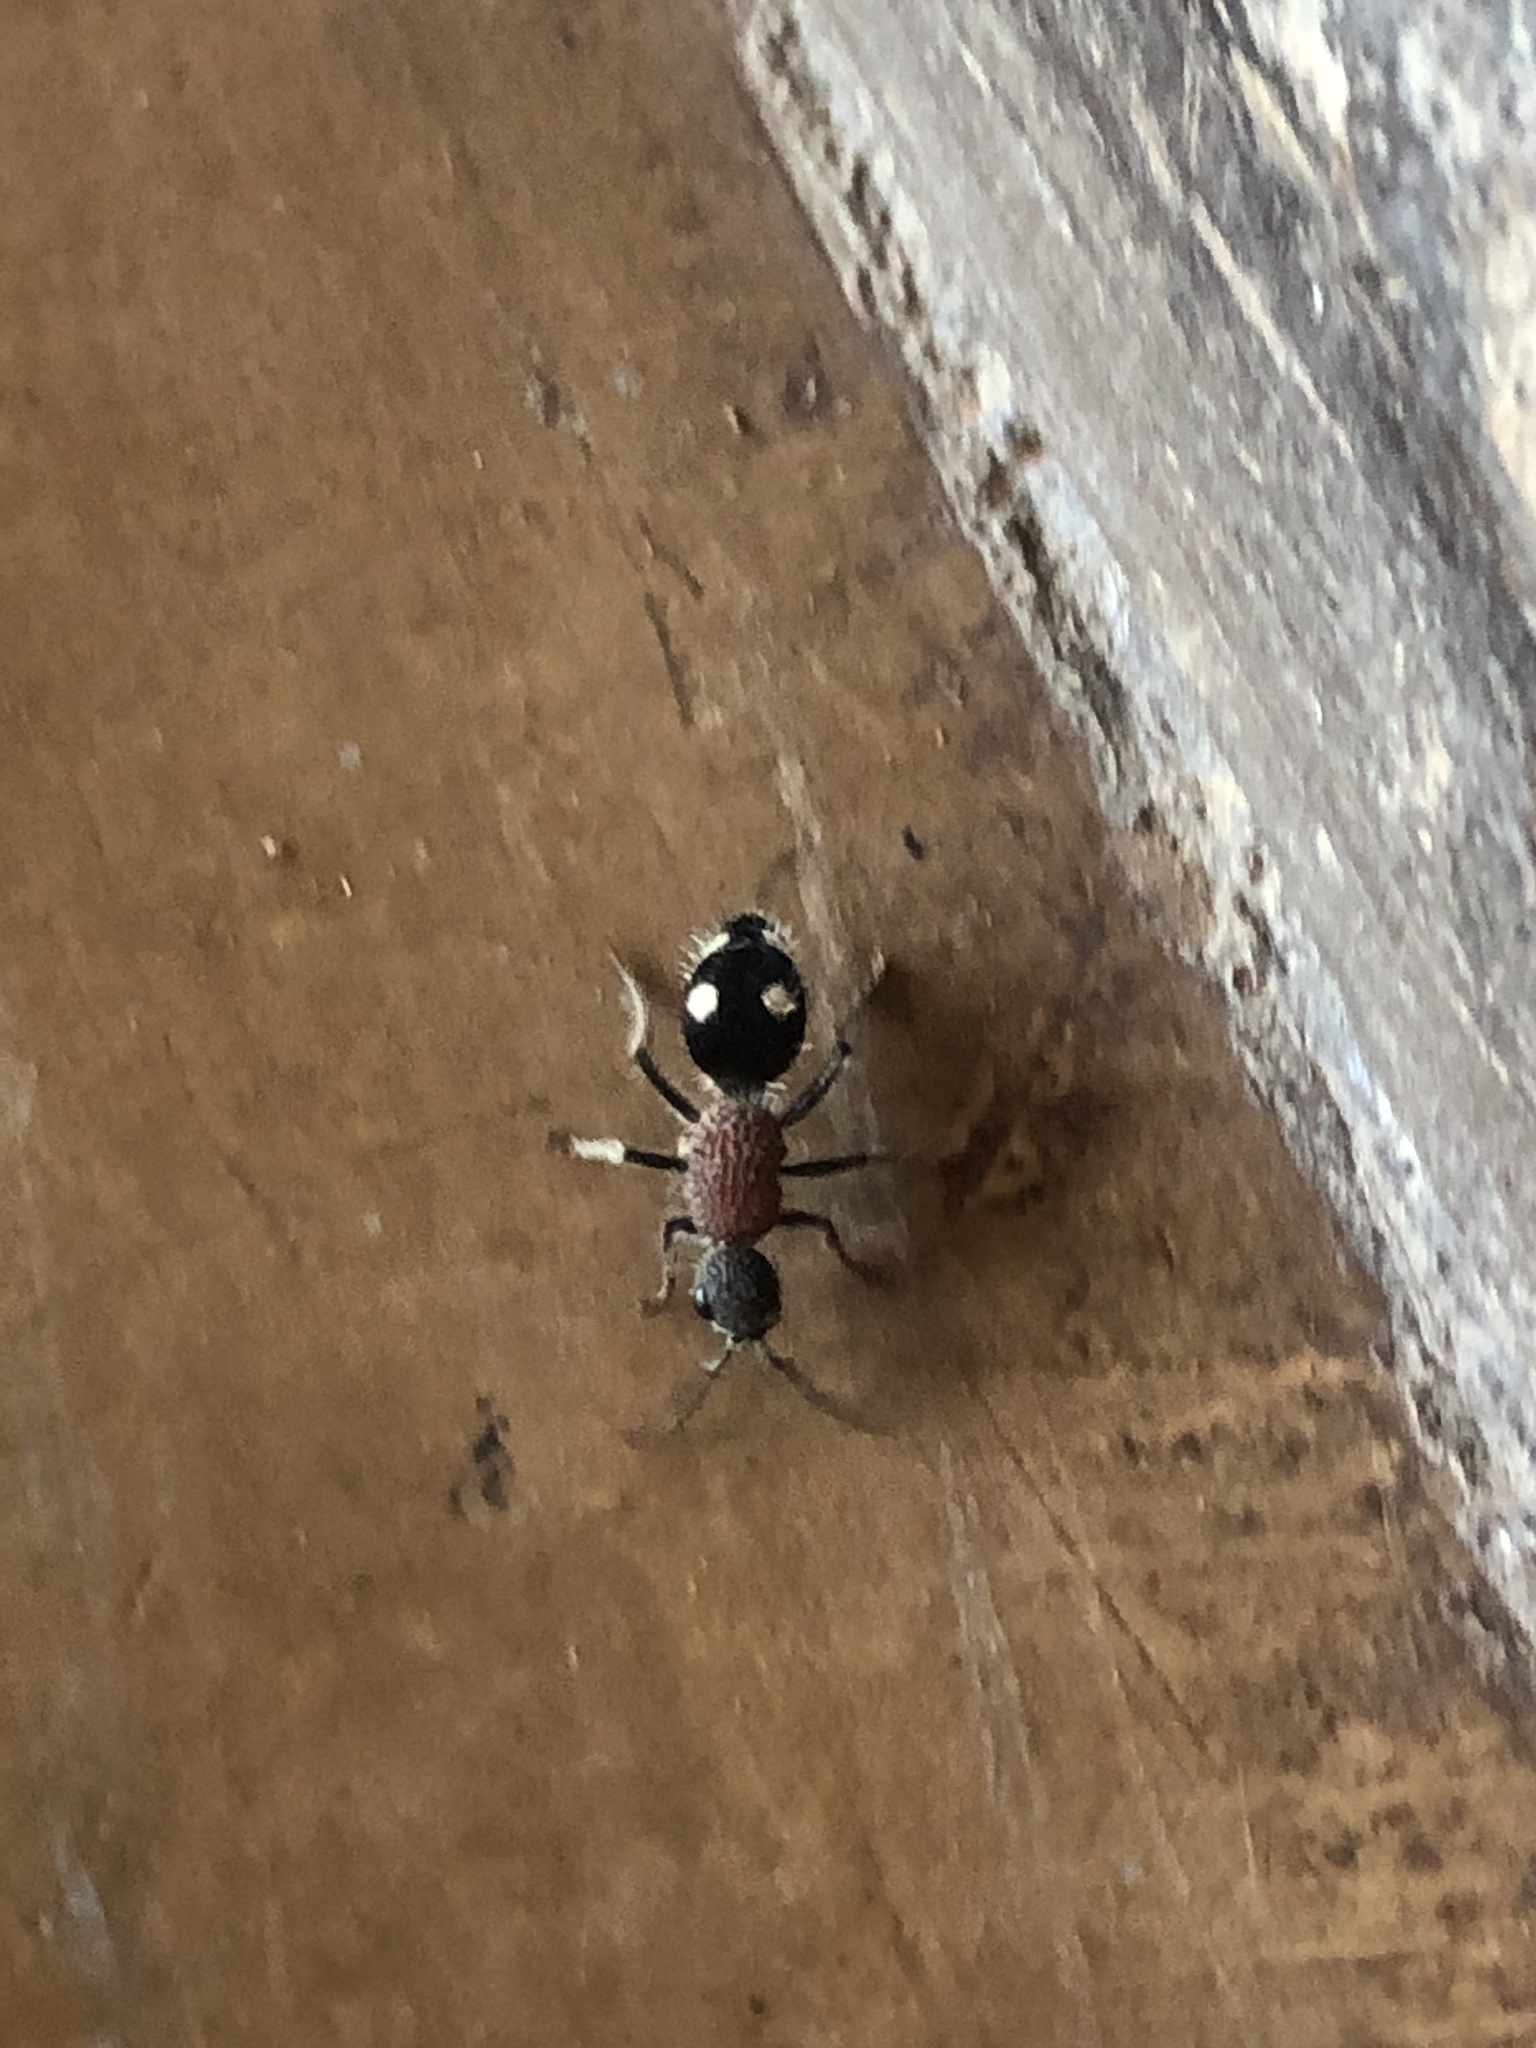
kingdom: Animalia
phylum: Arthropoda
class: Insecta
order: Hymenoptera
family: Mutillidae
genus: Dolichomutilla
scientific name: Dolichomutilla
